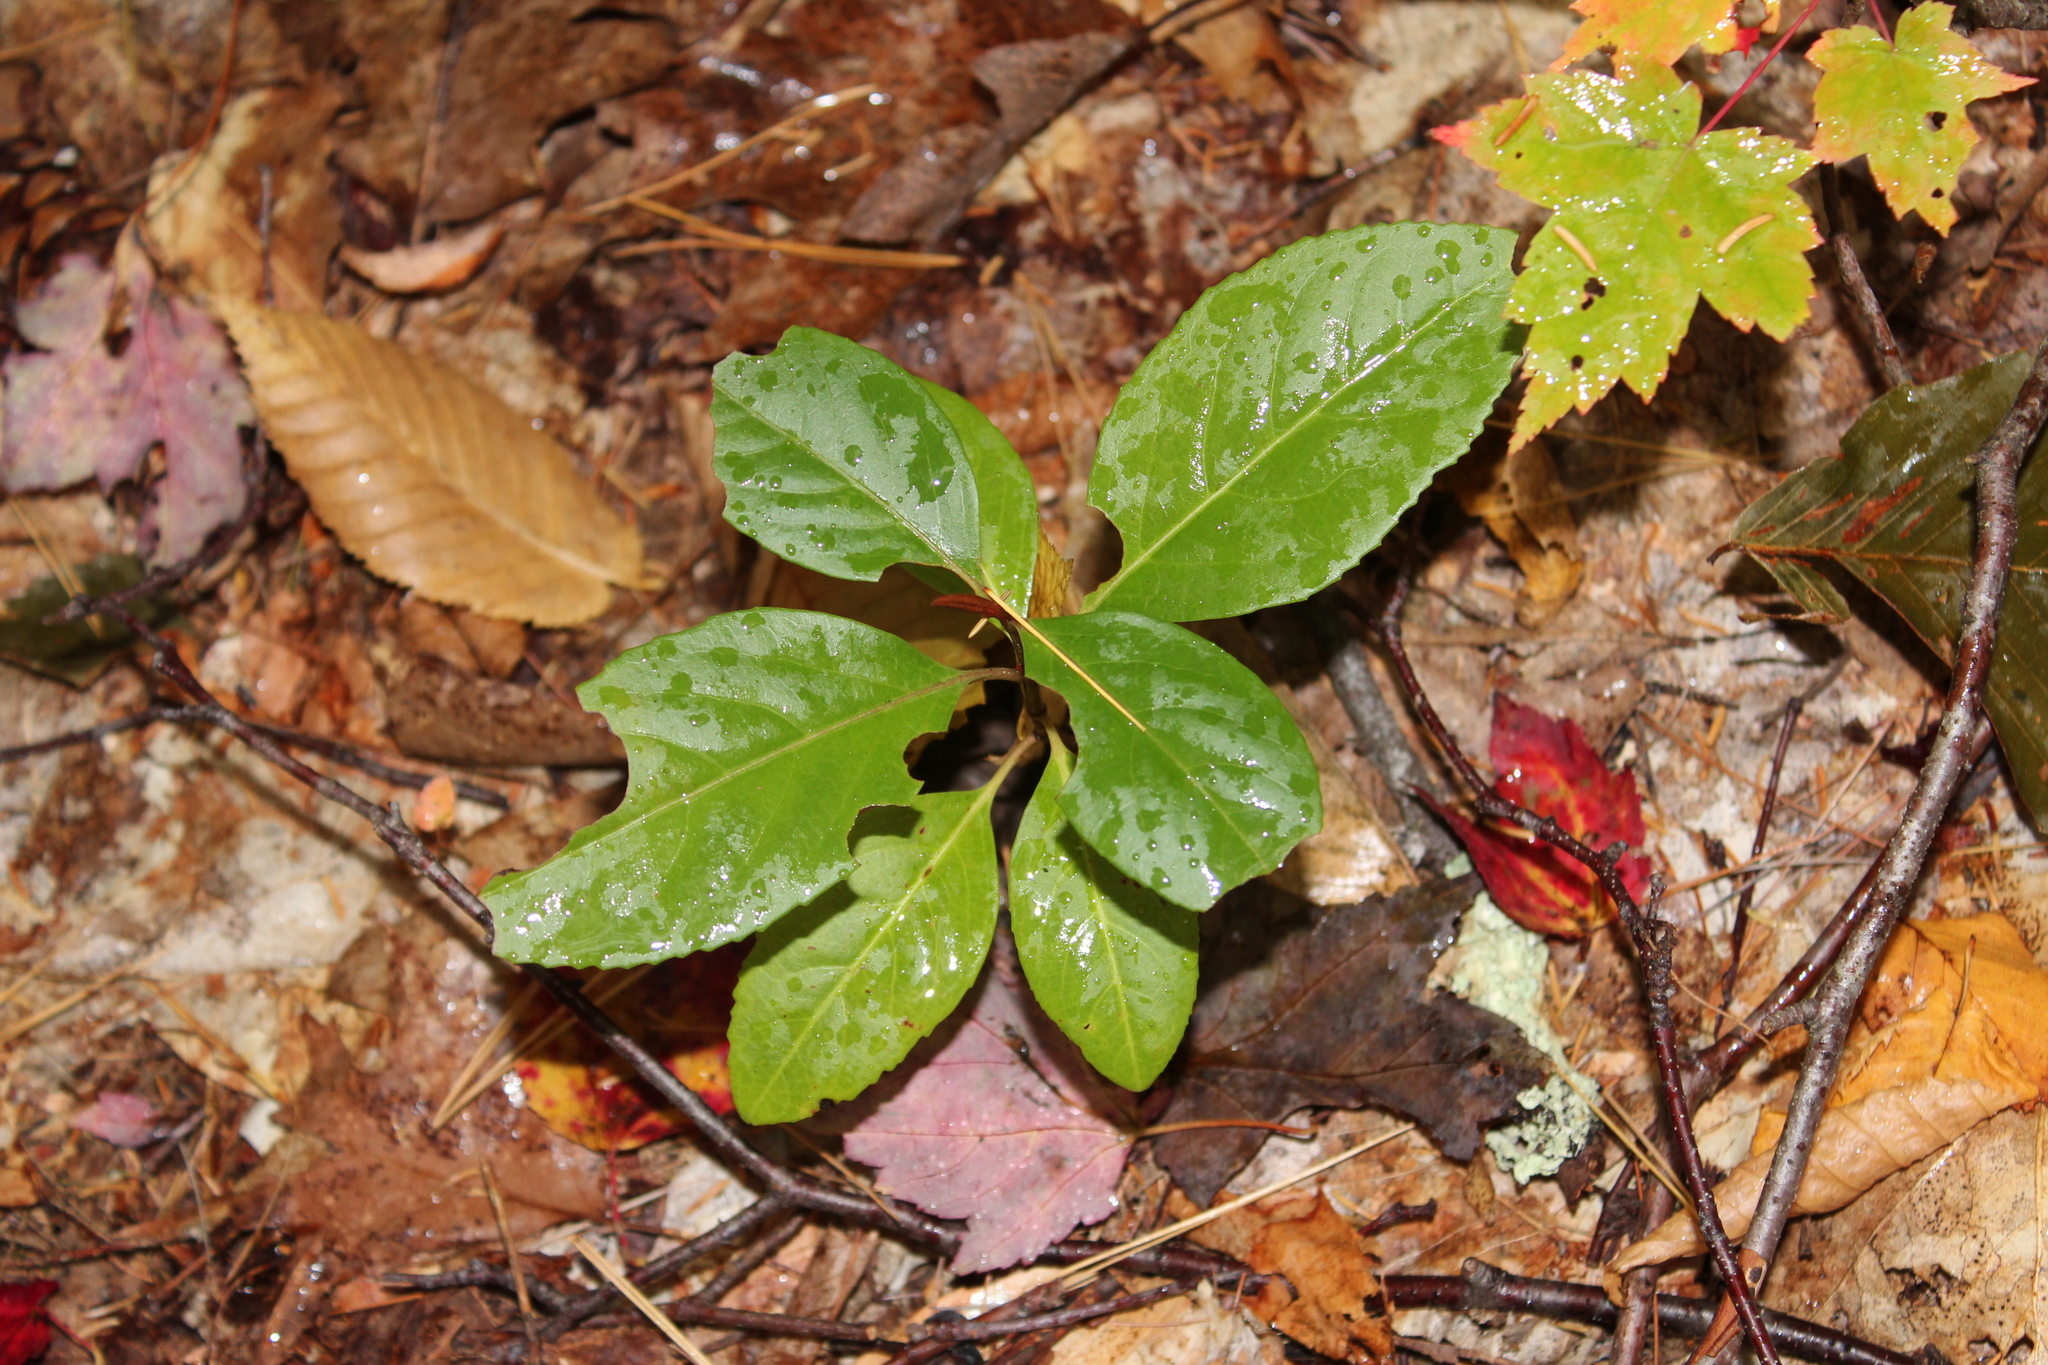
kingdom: Plantae
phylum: Tracheophyta
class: Magnoliopsida
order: Dipsacales
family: Viburnaceae
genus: Viburnum
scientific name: Viburnum cassinoides
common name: Swamp haw
